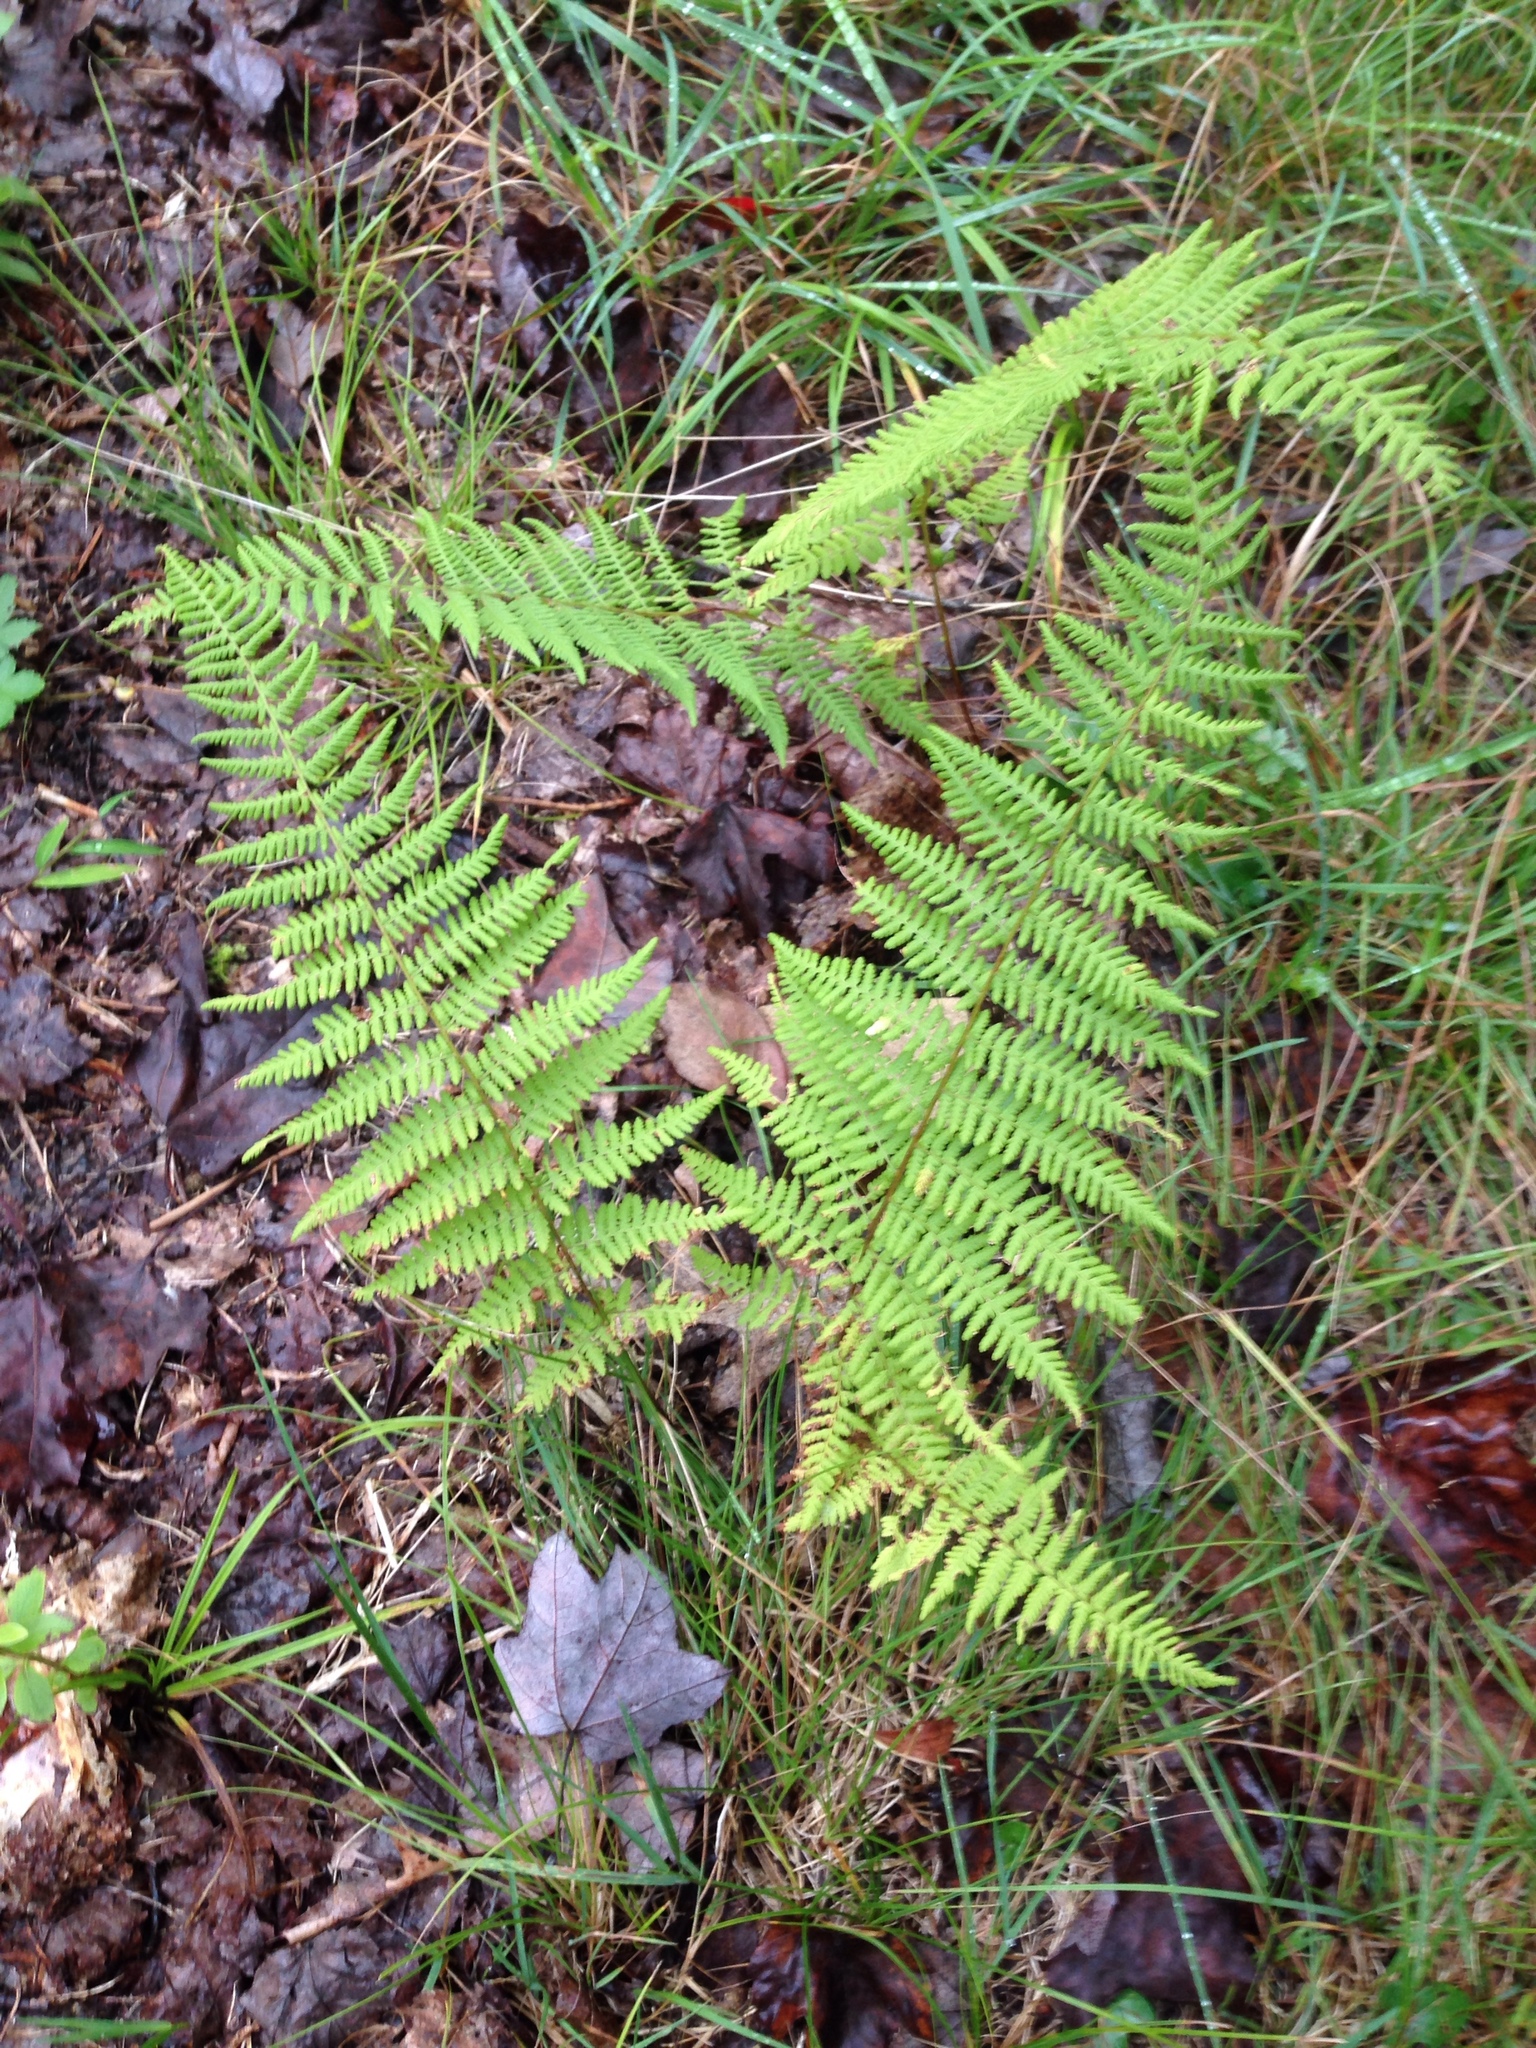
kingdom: Plantae
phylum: Tracheophyta
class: Polypodiopsida
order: Polypodiales
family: Dennstaedtiaceae
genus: Sitobolium
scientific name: Sitobolium punctilobum
